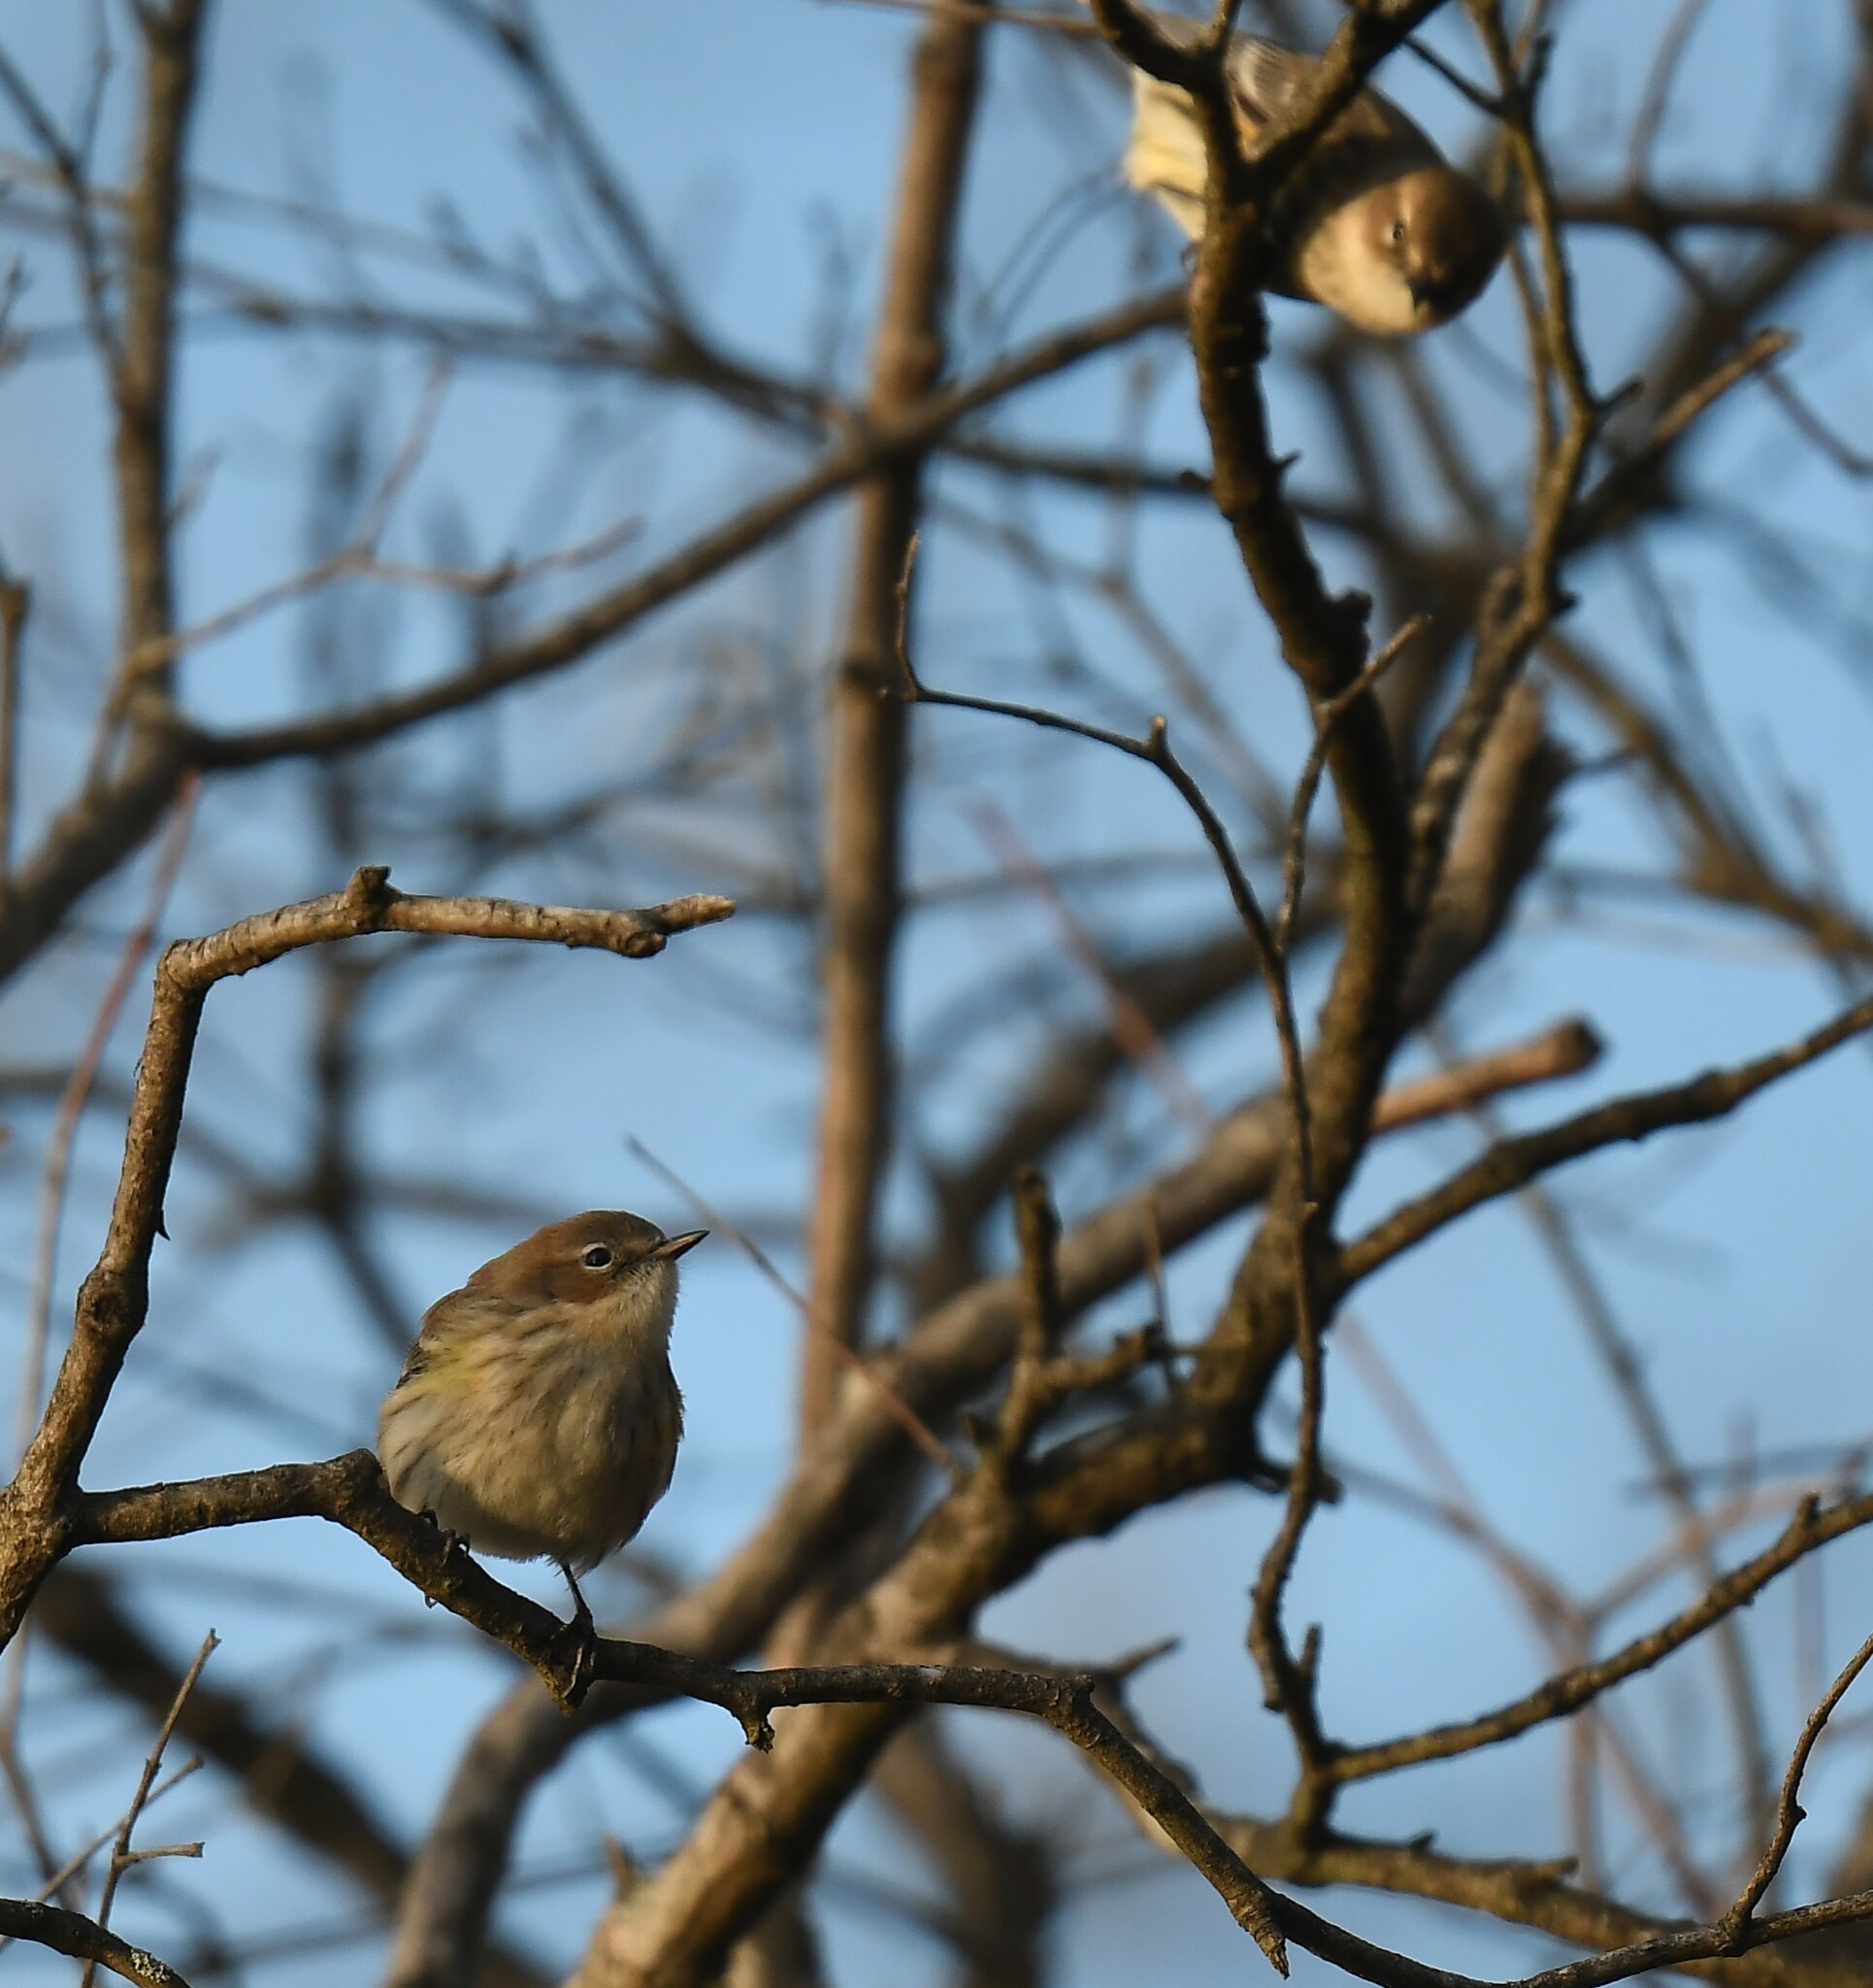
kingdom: Animalia
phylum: Chordata
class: Aves
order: Passeriformes
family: Parulidae
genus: Setophaga
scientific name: Setophaga coronata
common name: Myrtle warbler
